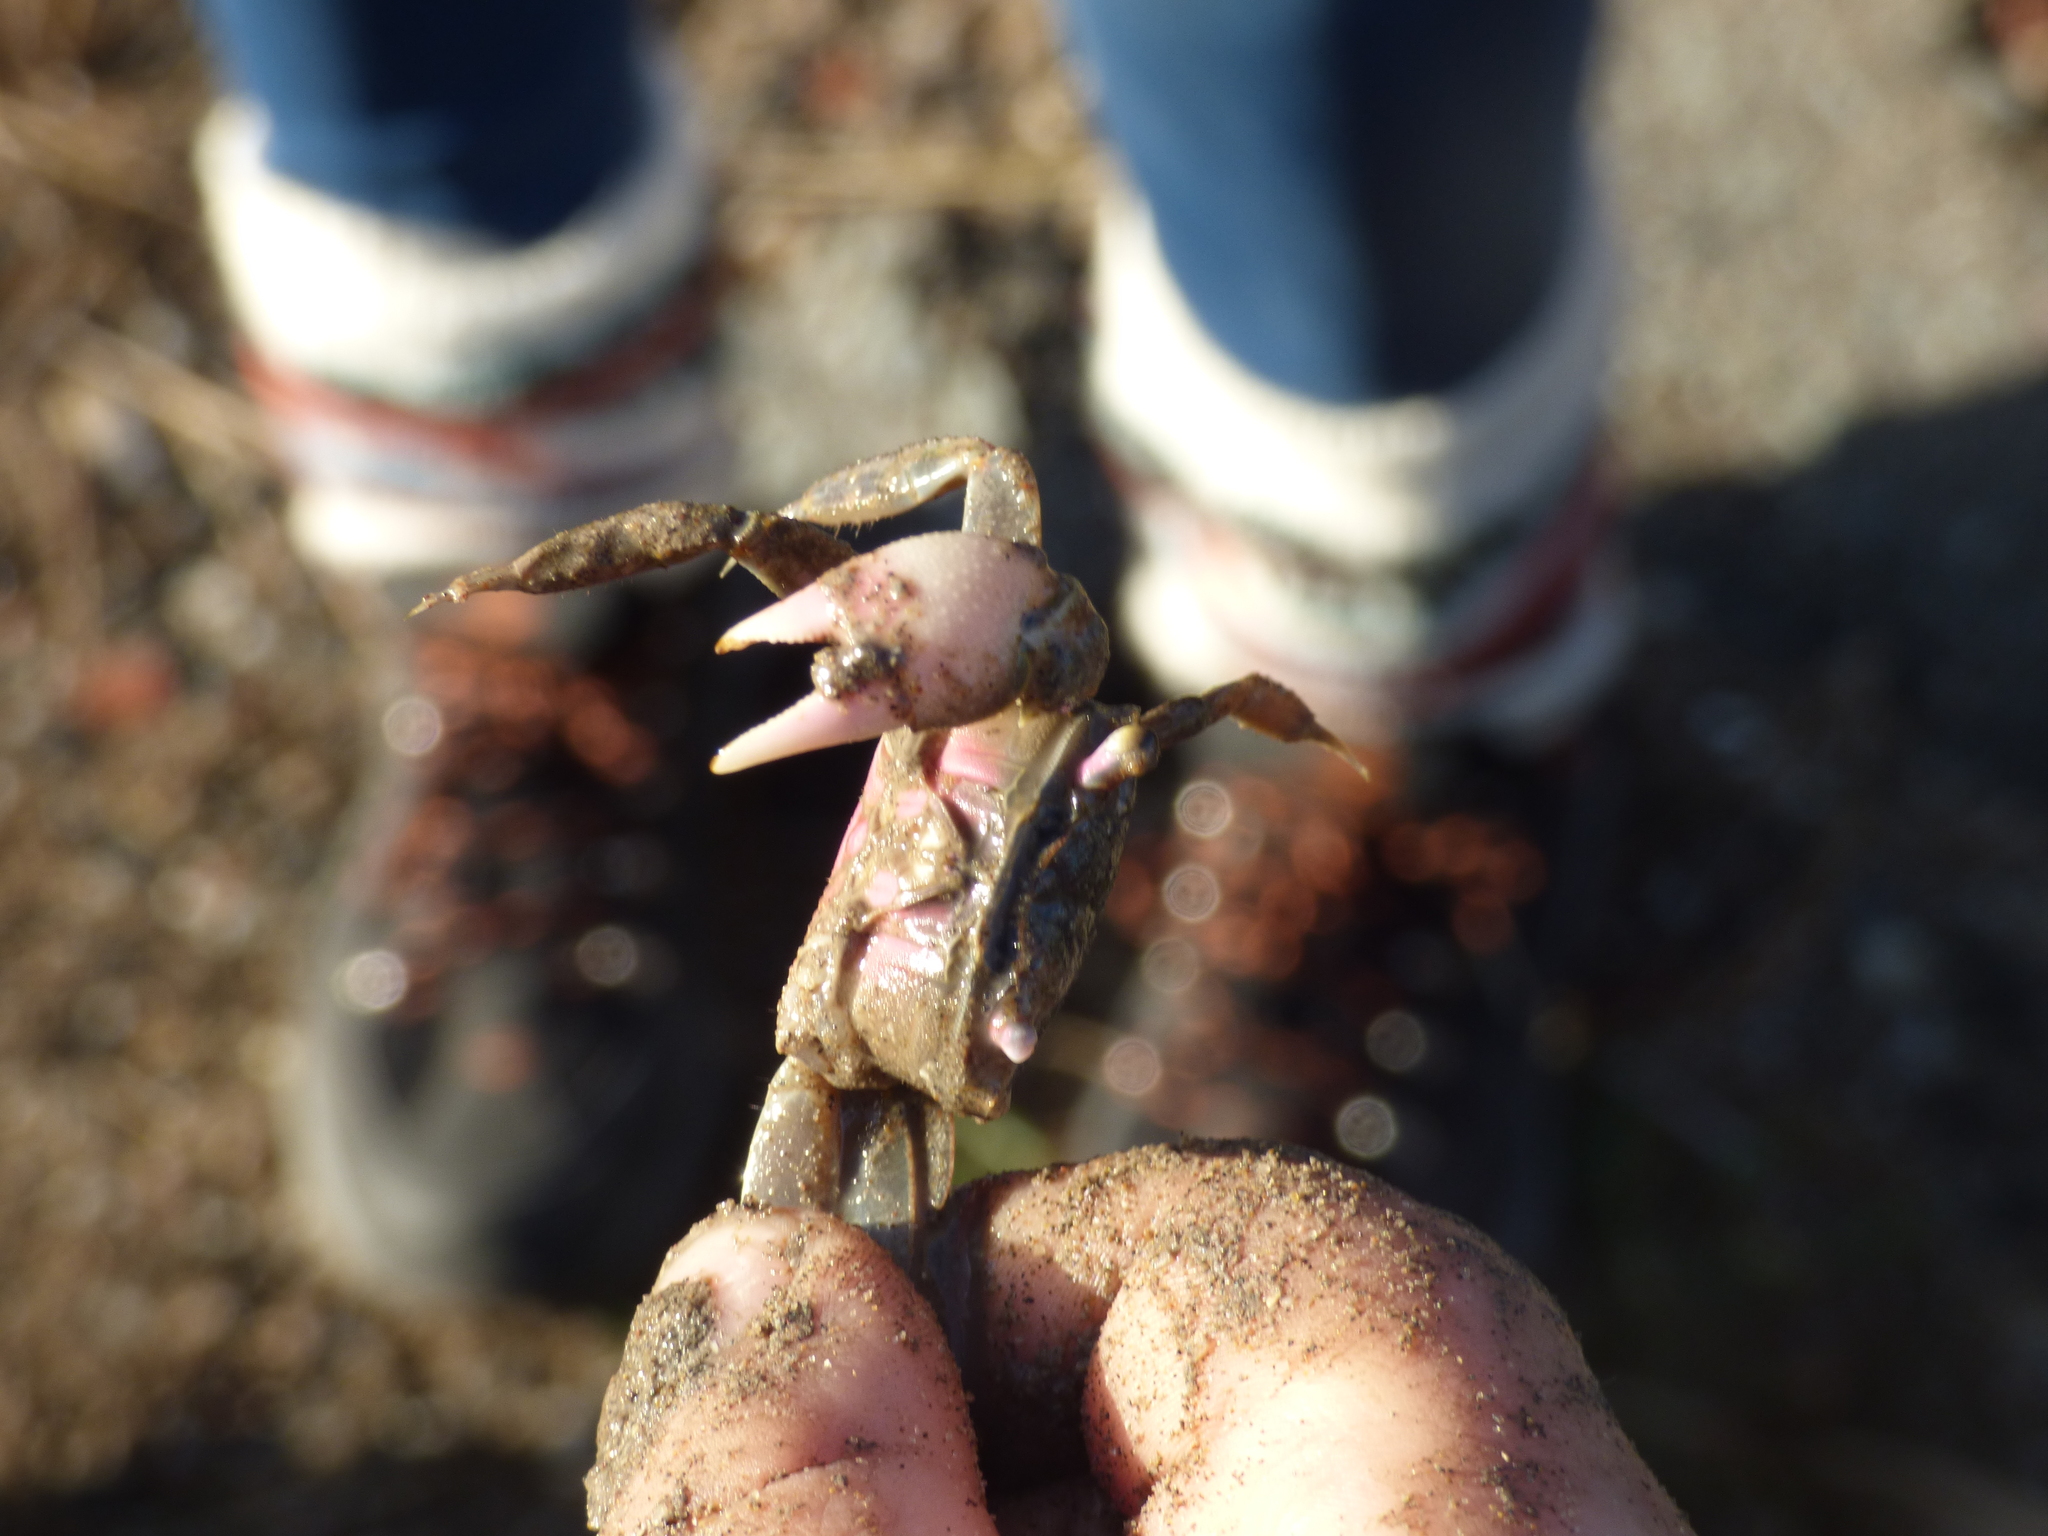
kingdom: Animalia
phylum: Arthropoda
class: Malacostraca
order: Decapoda
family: Varunidae
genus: Neohelice
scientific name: Neohelice granulata
